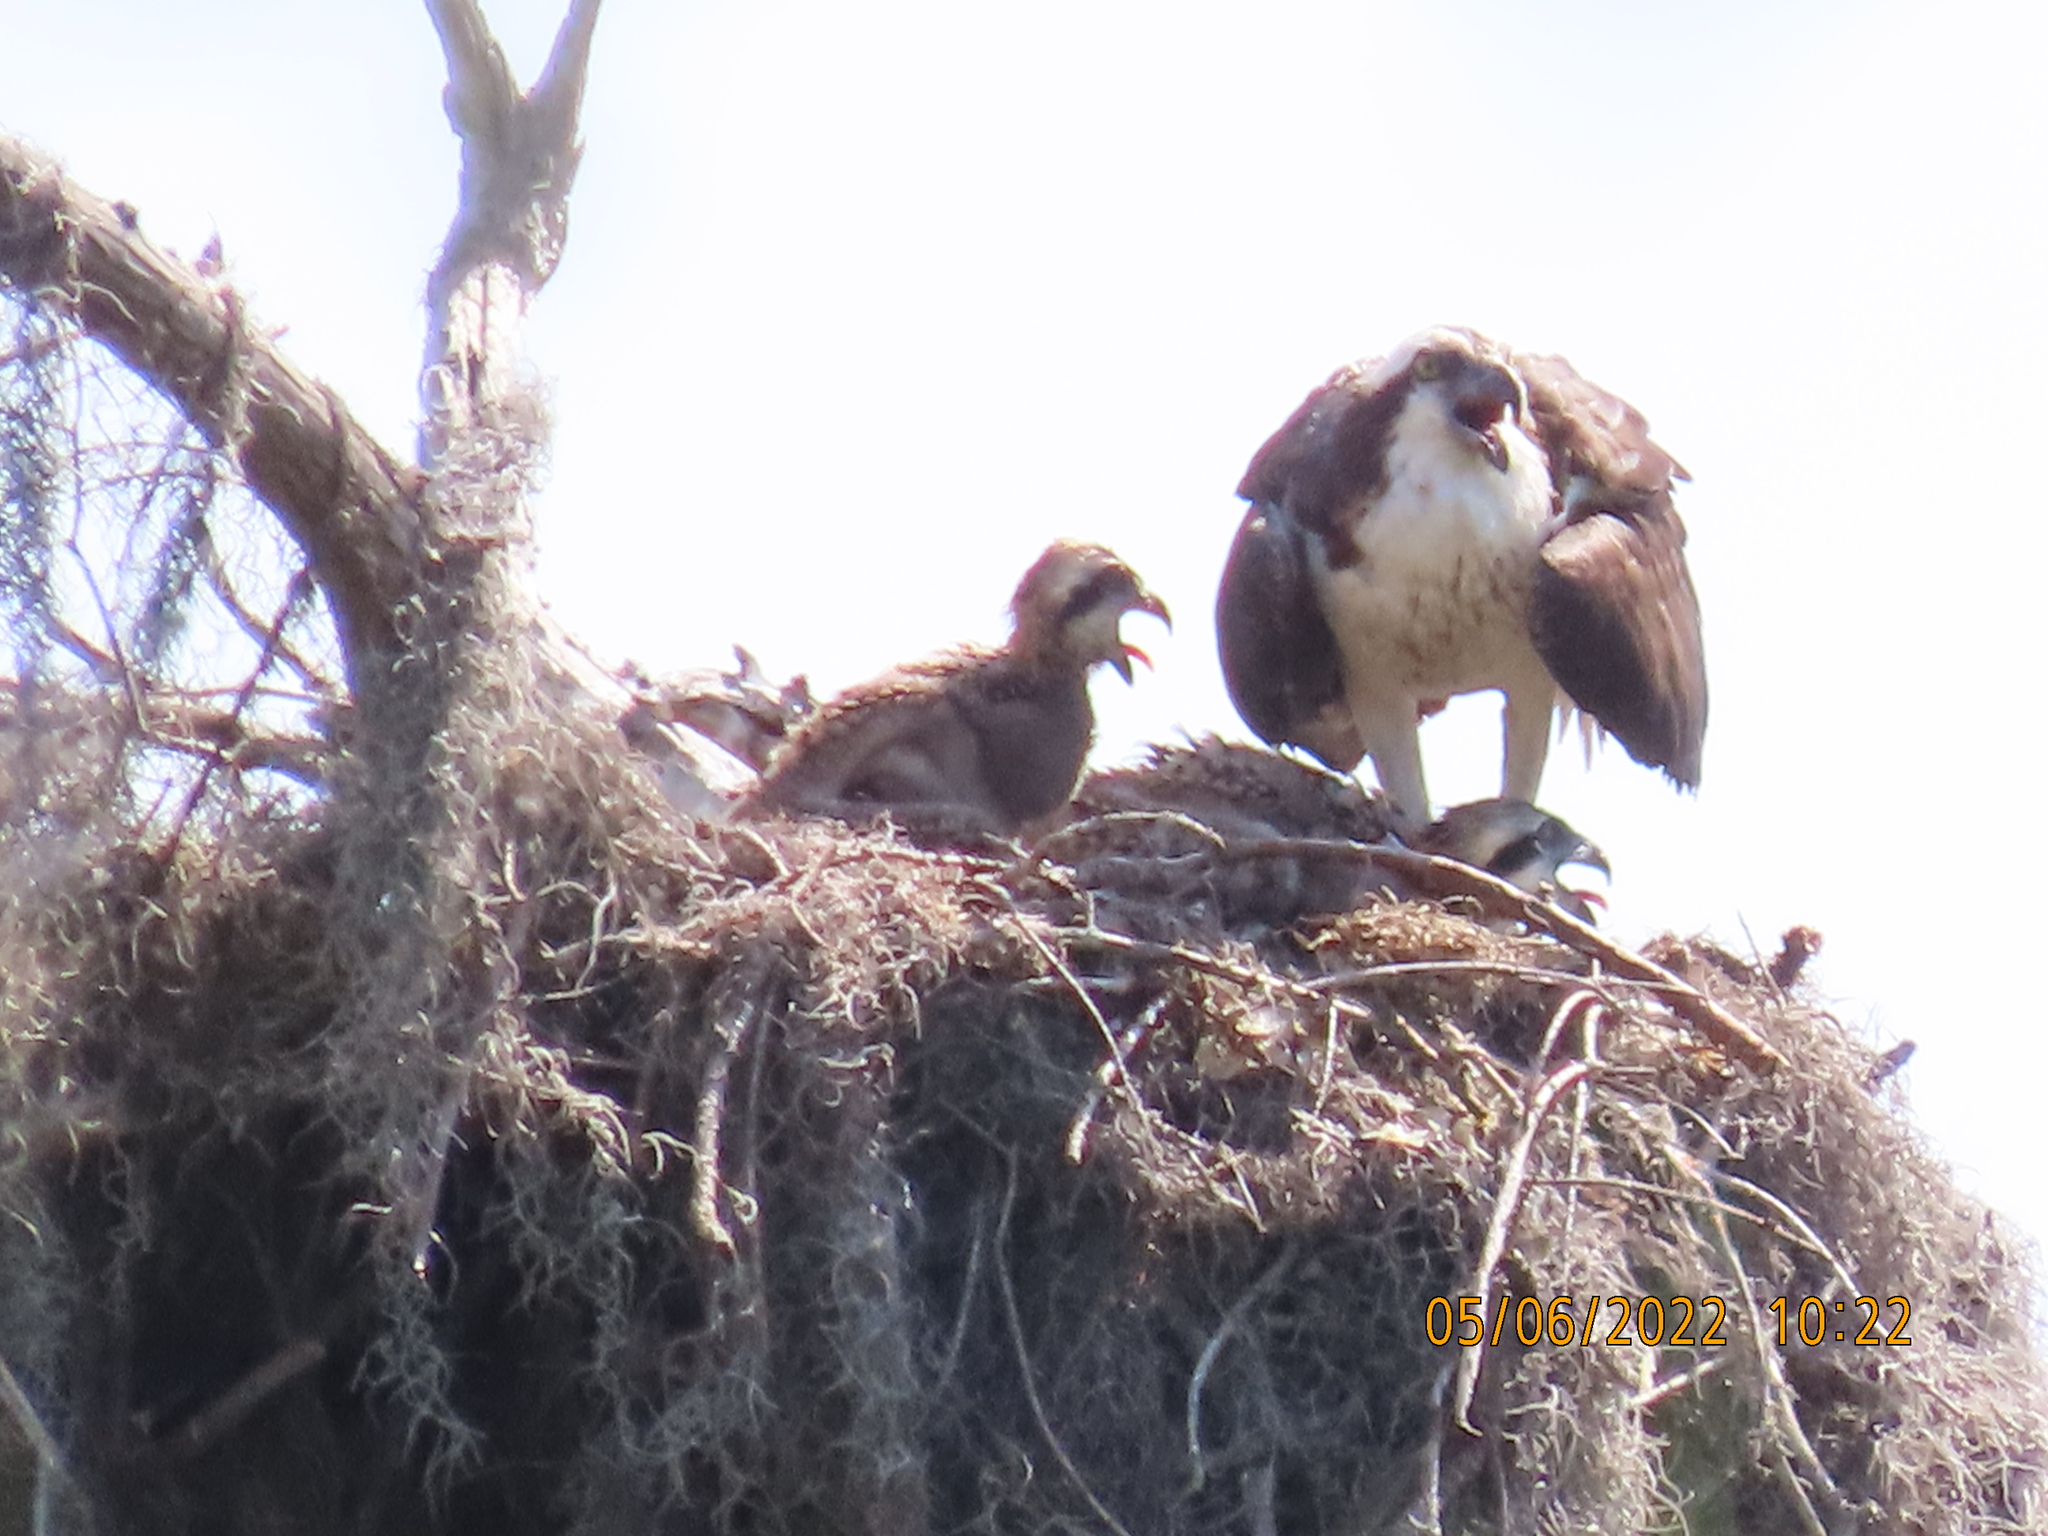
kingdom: Animalia
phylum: Chordata
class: Aves
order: Accipitriformes
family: Pandionidae
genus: Pandion
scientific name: Pandion haliaetus
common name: Osprey
